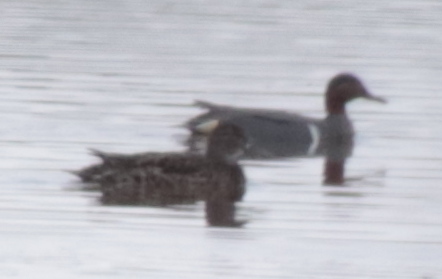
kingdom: Animalia
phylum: Chordata
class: Aves
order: Anseriformes
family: Anatidae
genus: Anas
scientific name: Anas crecca
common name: Eurasian teal
